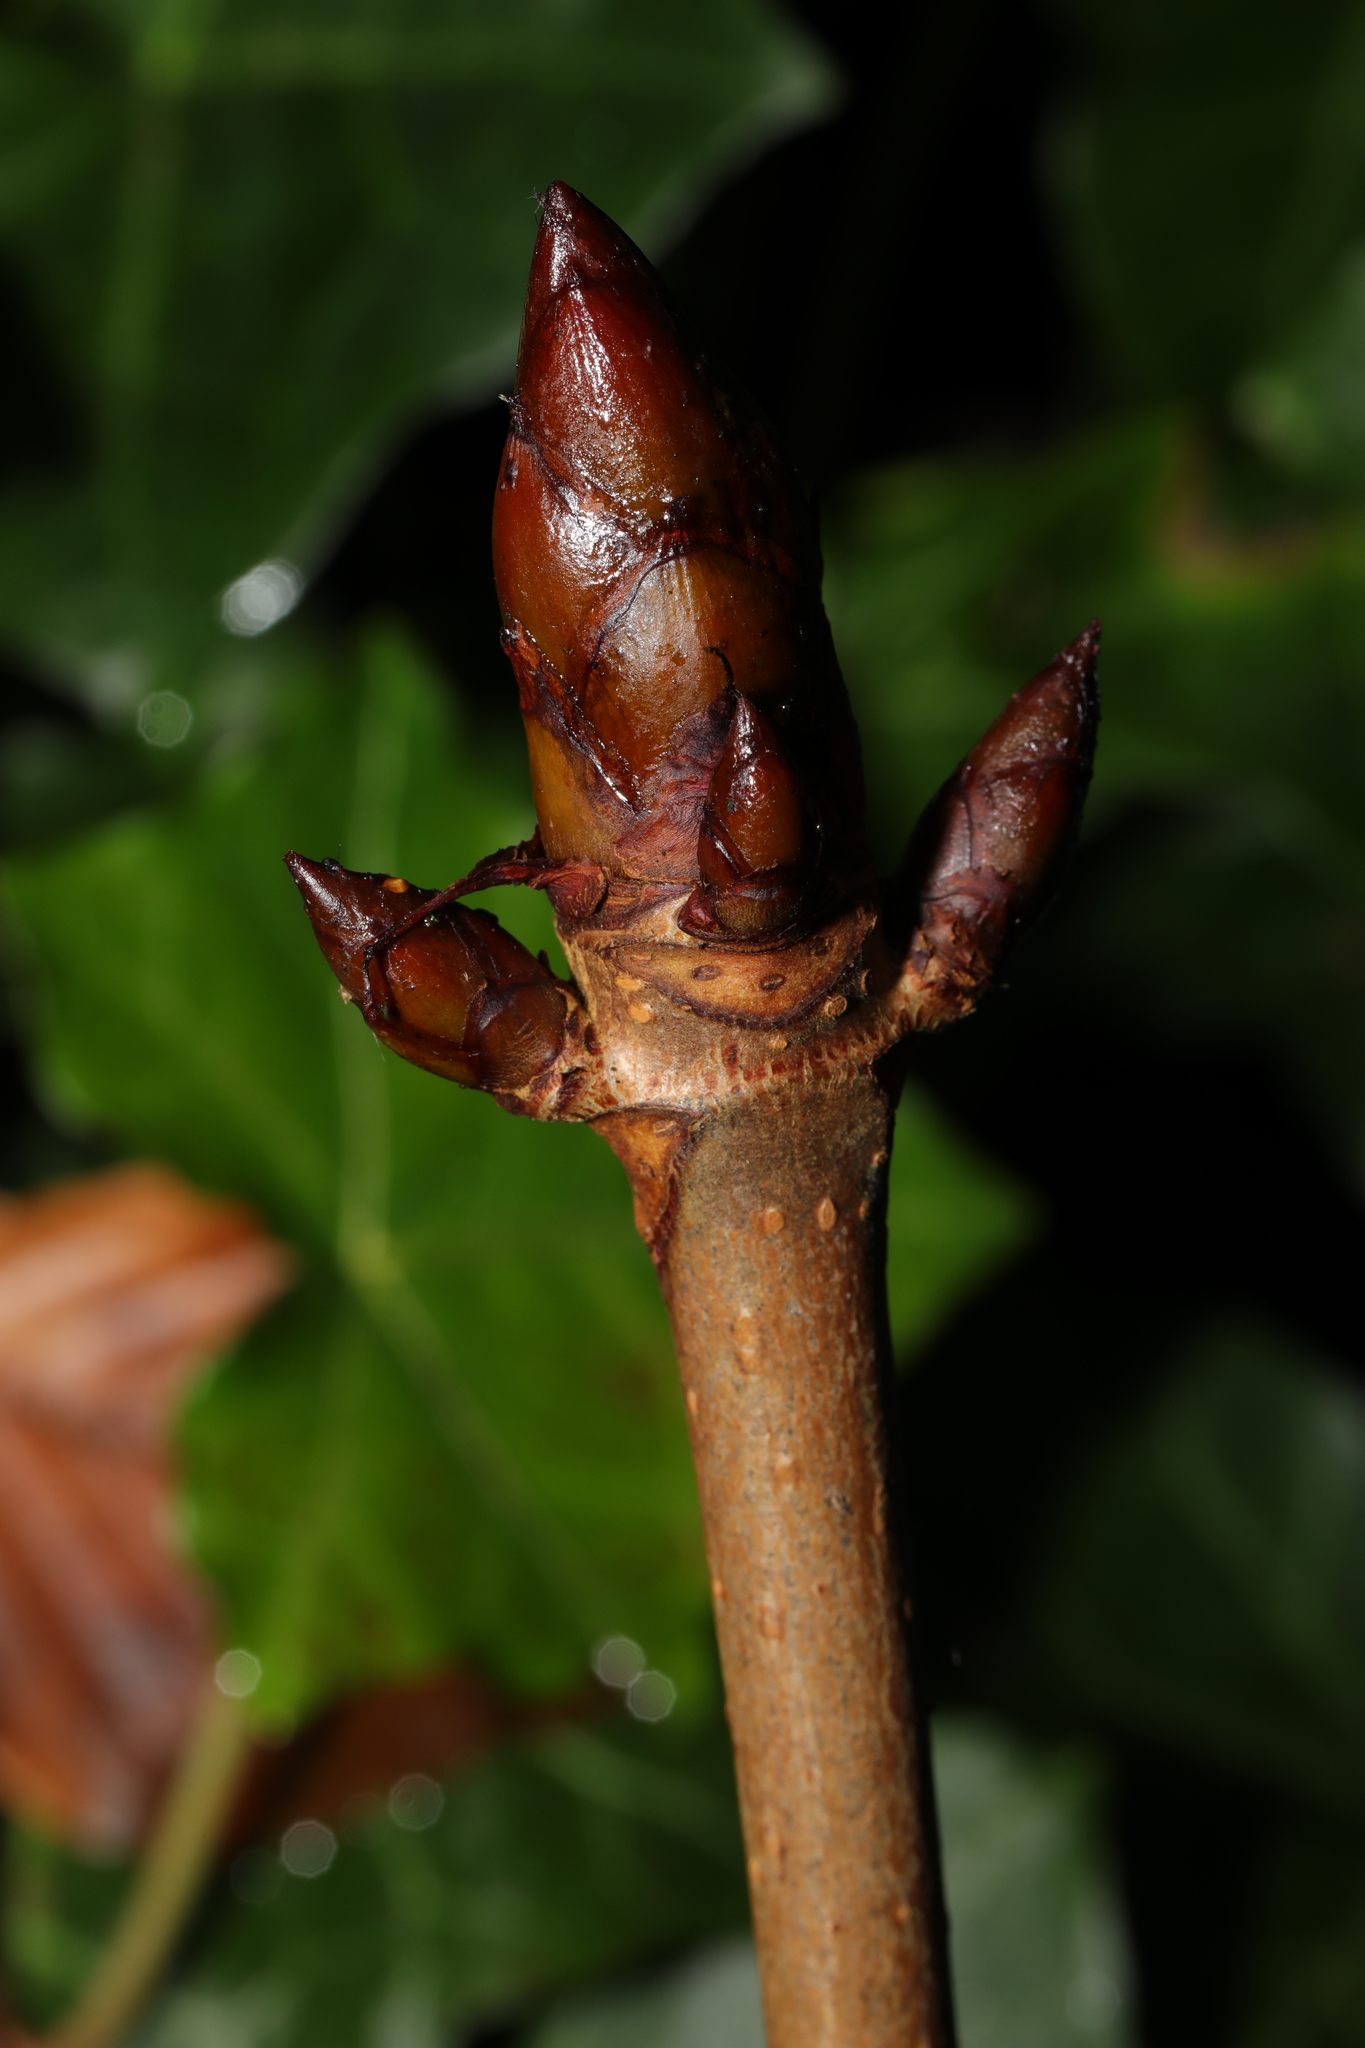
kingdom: Plantae
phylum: Tracheophyta
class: Magnoliopsida
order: Sapindales
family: Sapindaceae
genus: Aesculus
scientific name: Aesculus hippocastanum
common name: Horse-chestnut
